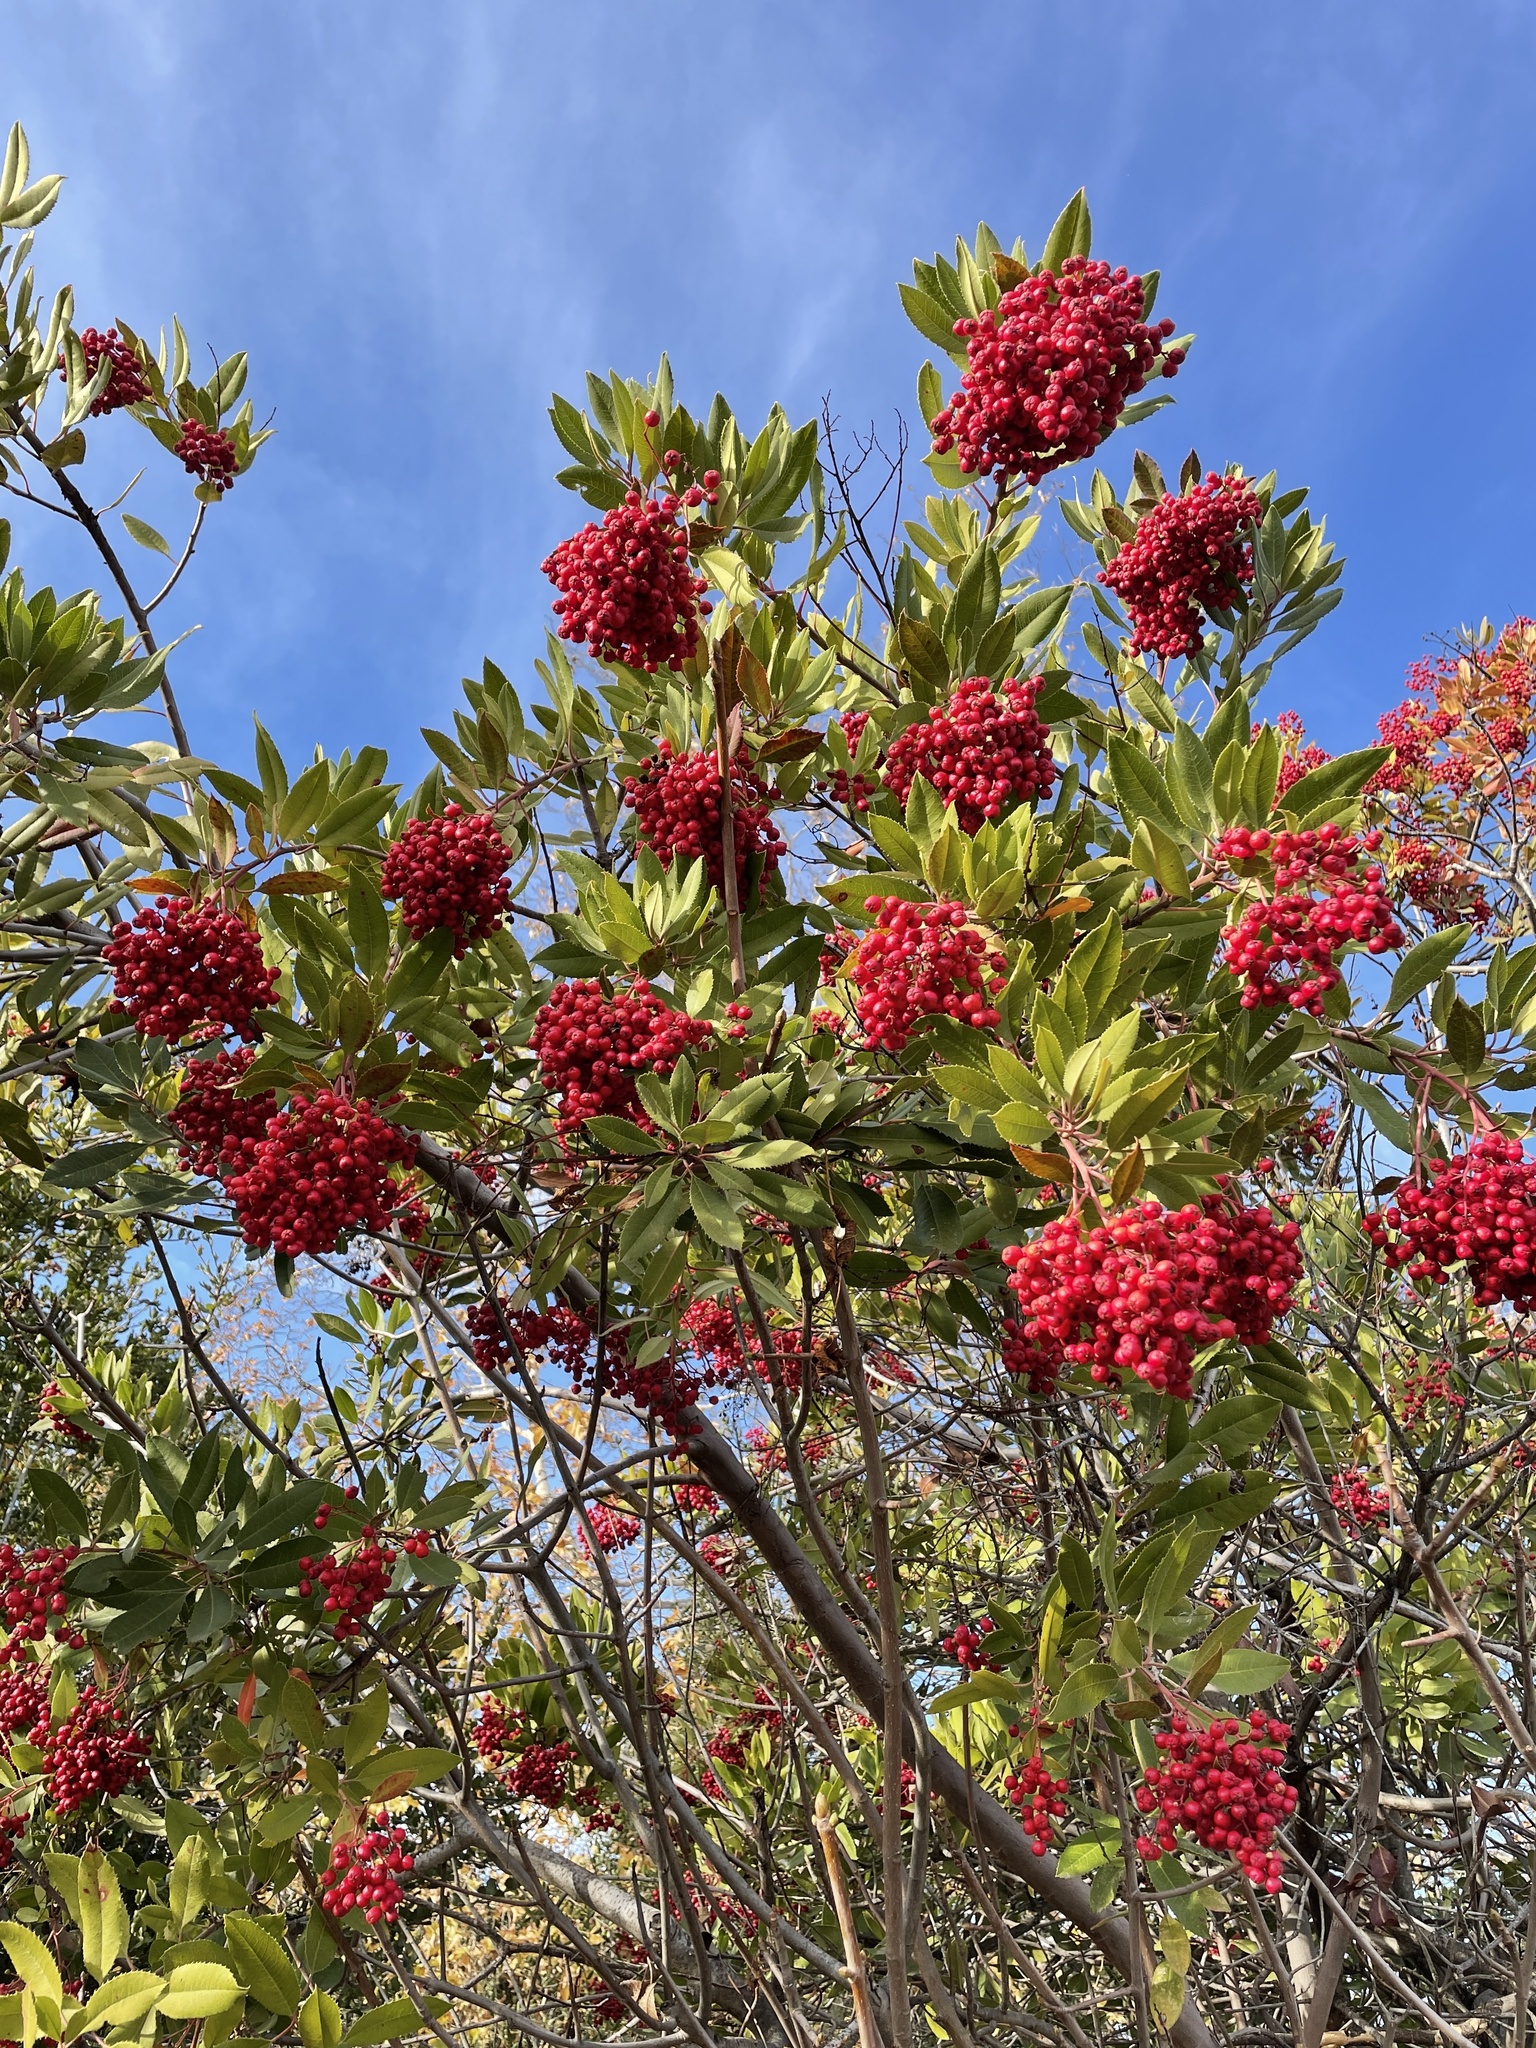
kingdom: Plantae
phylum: Tracheophyta
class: Magnoliopsida
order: Rosales
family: Rosaceae
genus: Heteromeles
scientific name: Heteromeles arbutifolia
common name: California-holly
